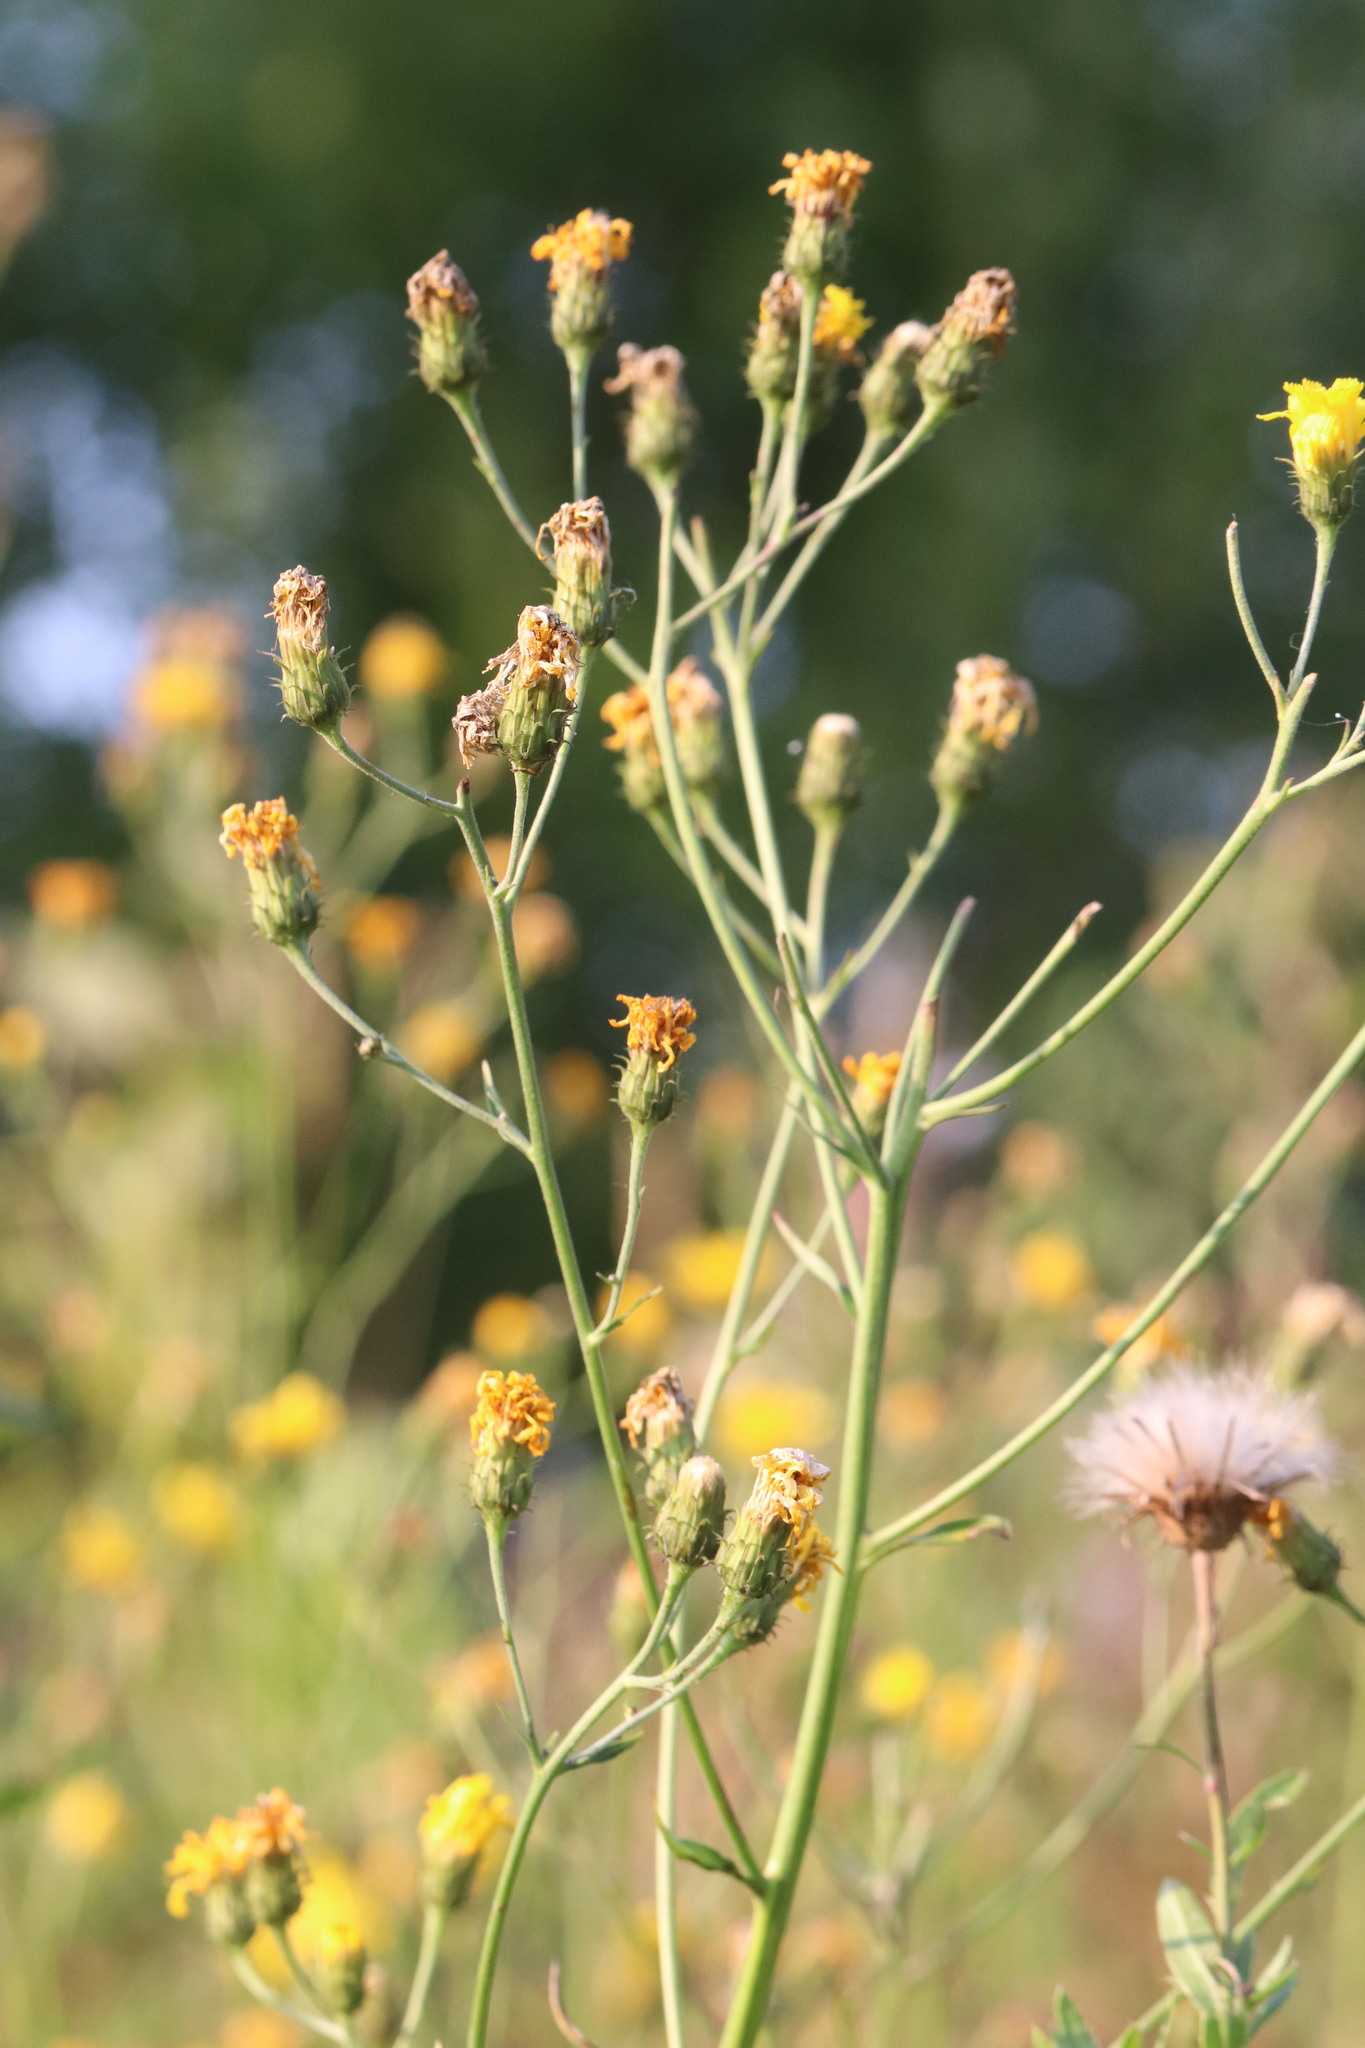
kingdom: Plantae
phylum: Tracheophyta
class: Magnoliopsida
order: Asterales
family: Asteraceae
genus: Hieracium
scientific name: Hieracium umbellatum
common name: Northern hawkweed
